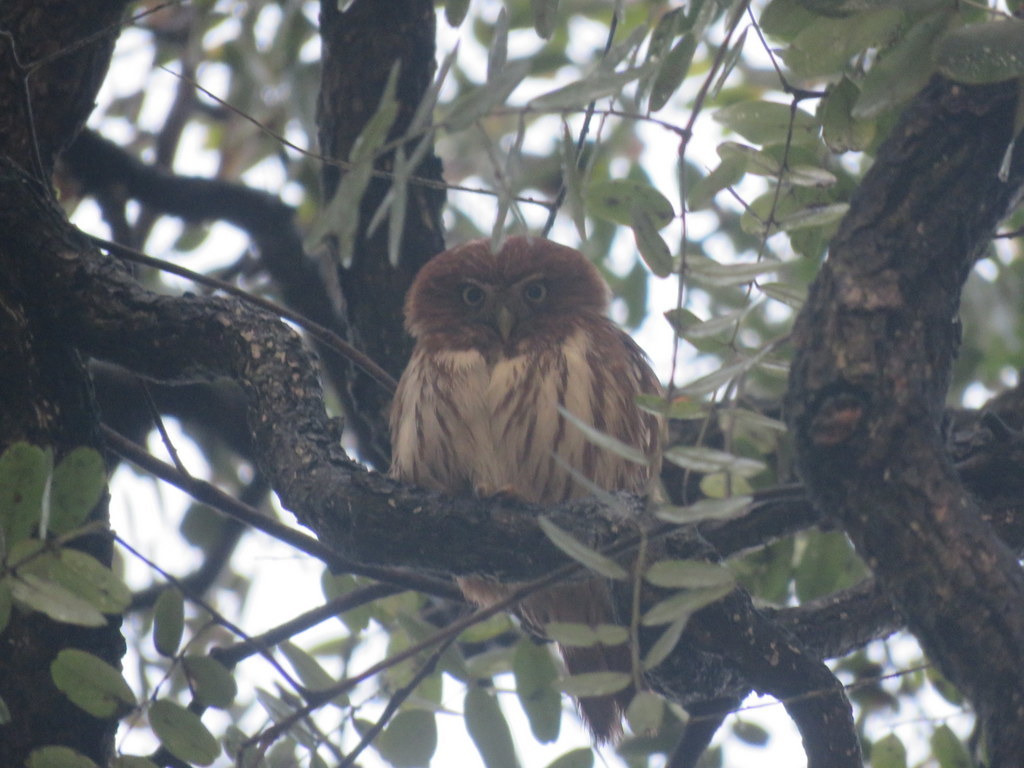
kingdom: Animalia
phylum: Chordata
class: Aves
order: Strigiformes
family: Strigidae
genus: Glaucidium
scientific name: Glaucidium brasilianum
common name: Ferruginous pygmy-owl
